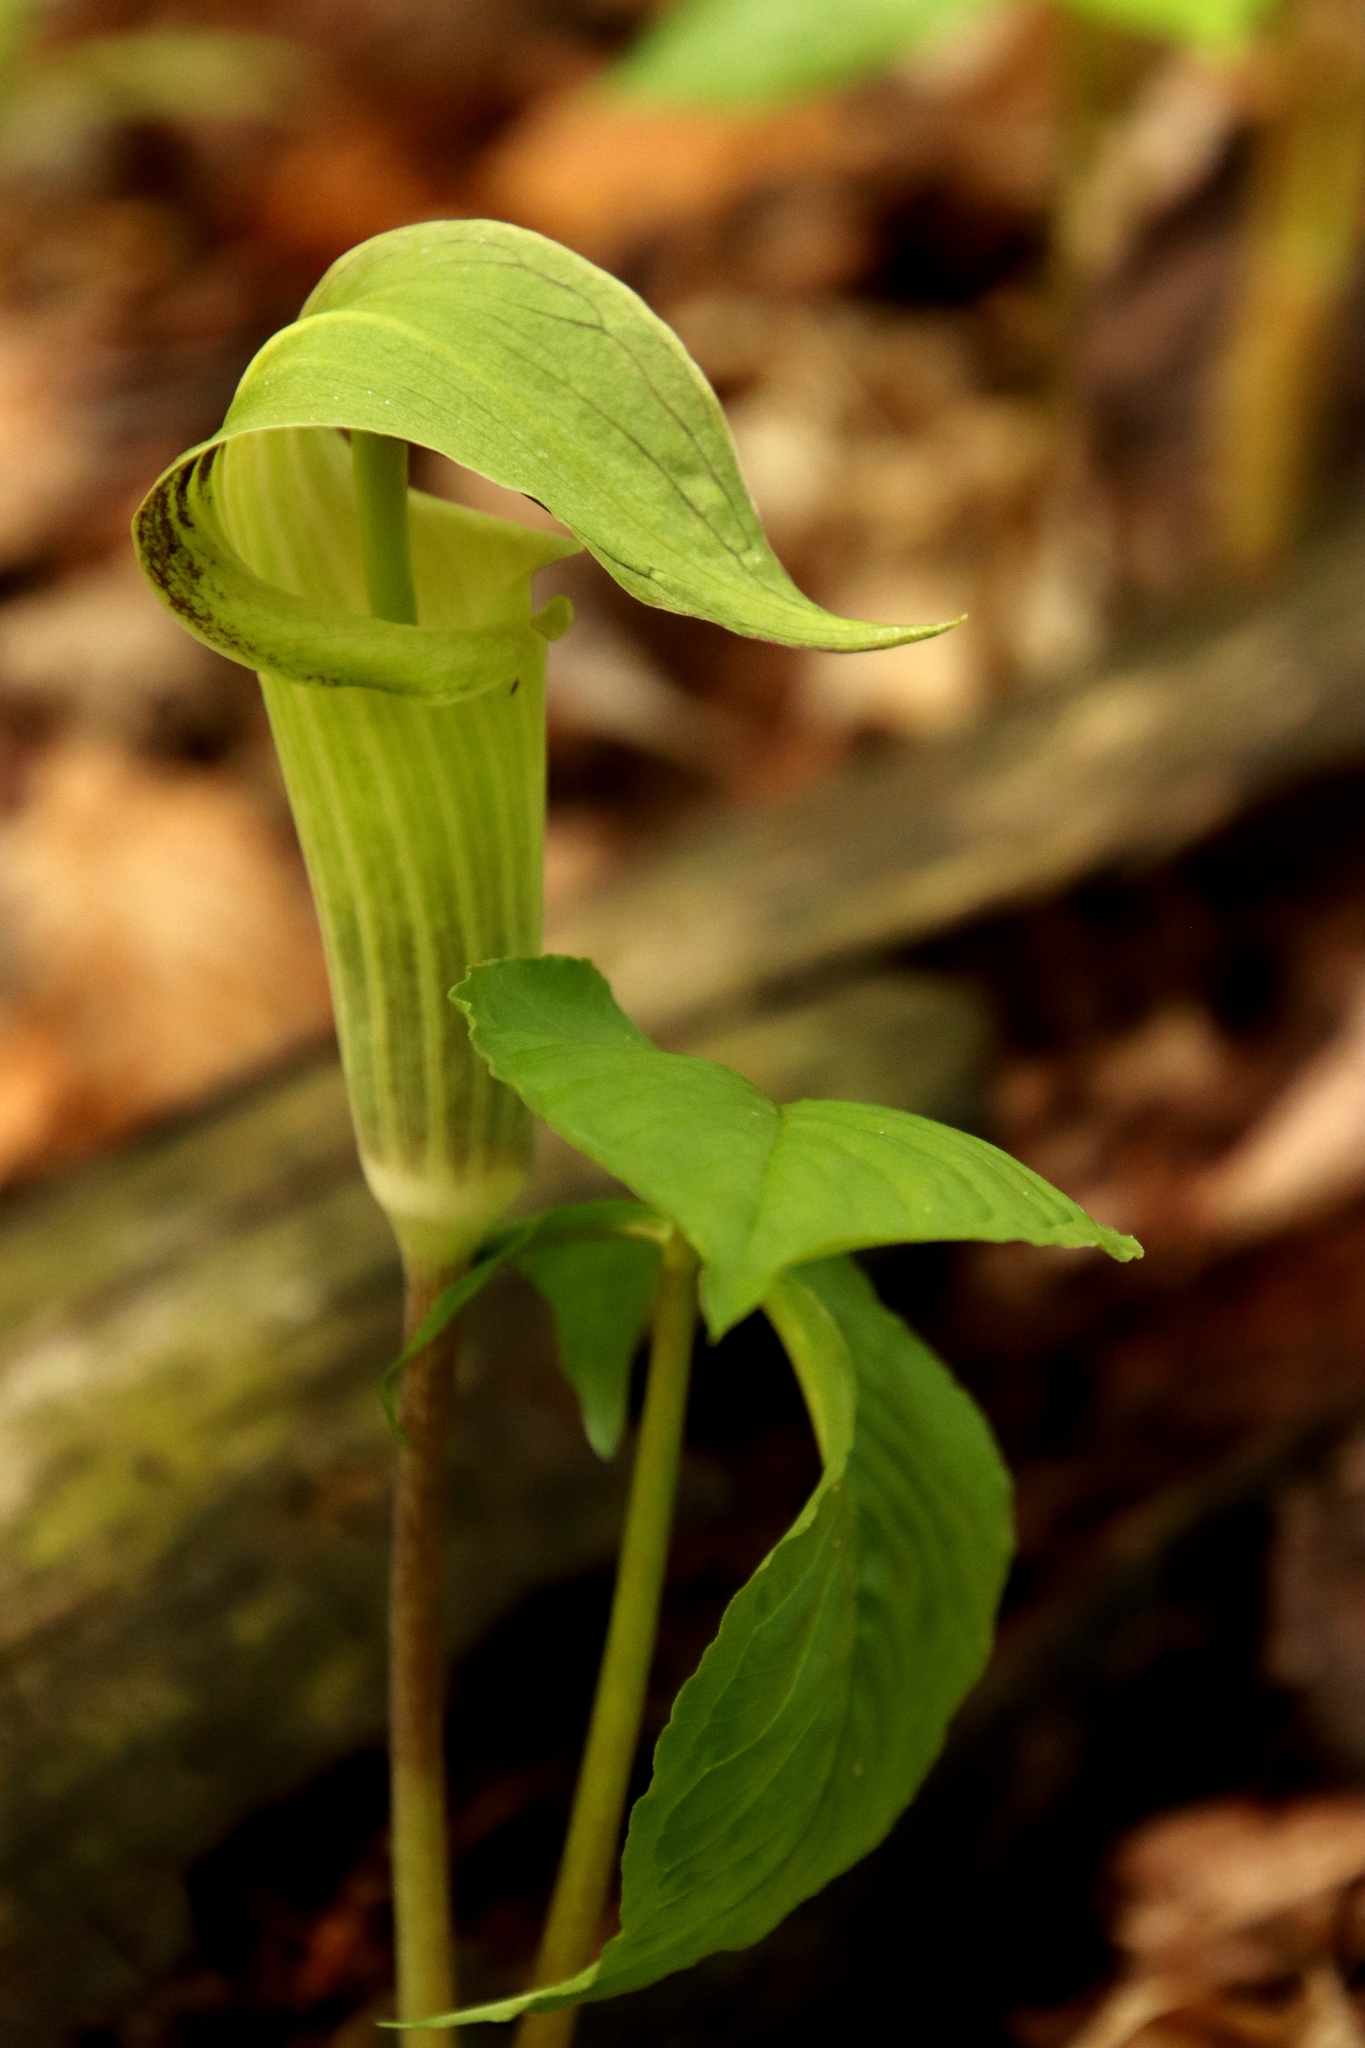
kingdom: Plantae
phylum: Tracheophyta
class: Liliopsida
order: Alismatales
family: Araceae
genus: Arisaema
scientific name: Arisaema triphyllum
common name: Jack-in-the-pulpit
